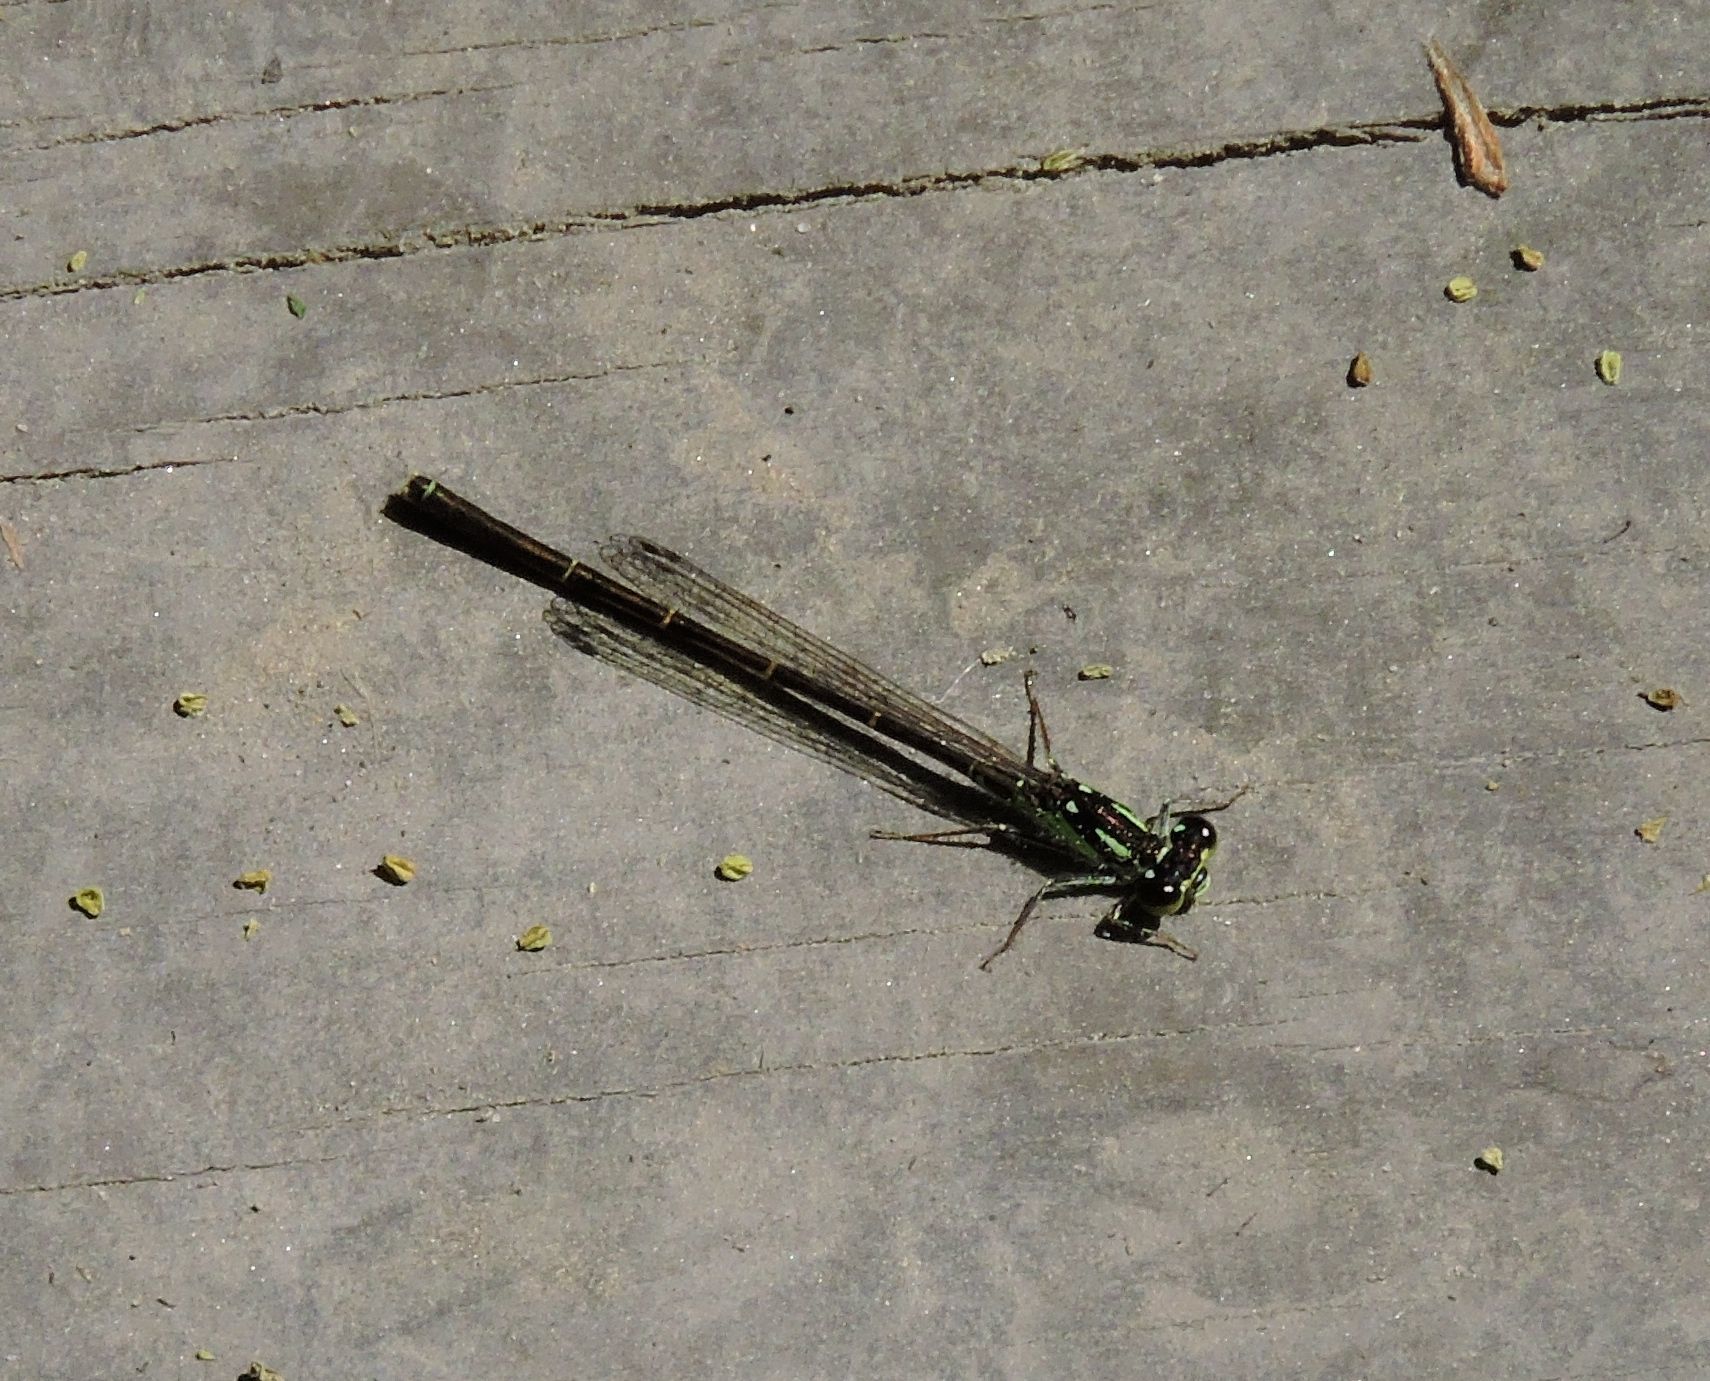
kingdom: Animalia
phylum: Arthropoda
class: Insecta
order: Odonata
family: Coenagrionidae
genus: Ischnura
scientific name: Ischnura posita
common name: Fragile forktail
